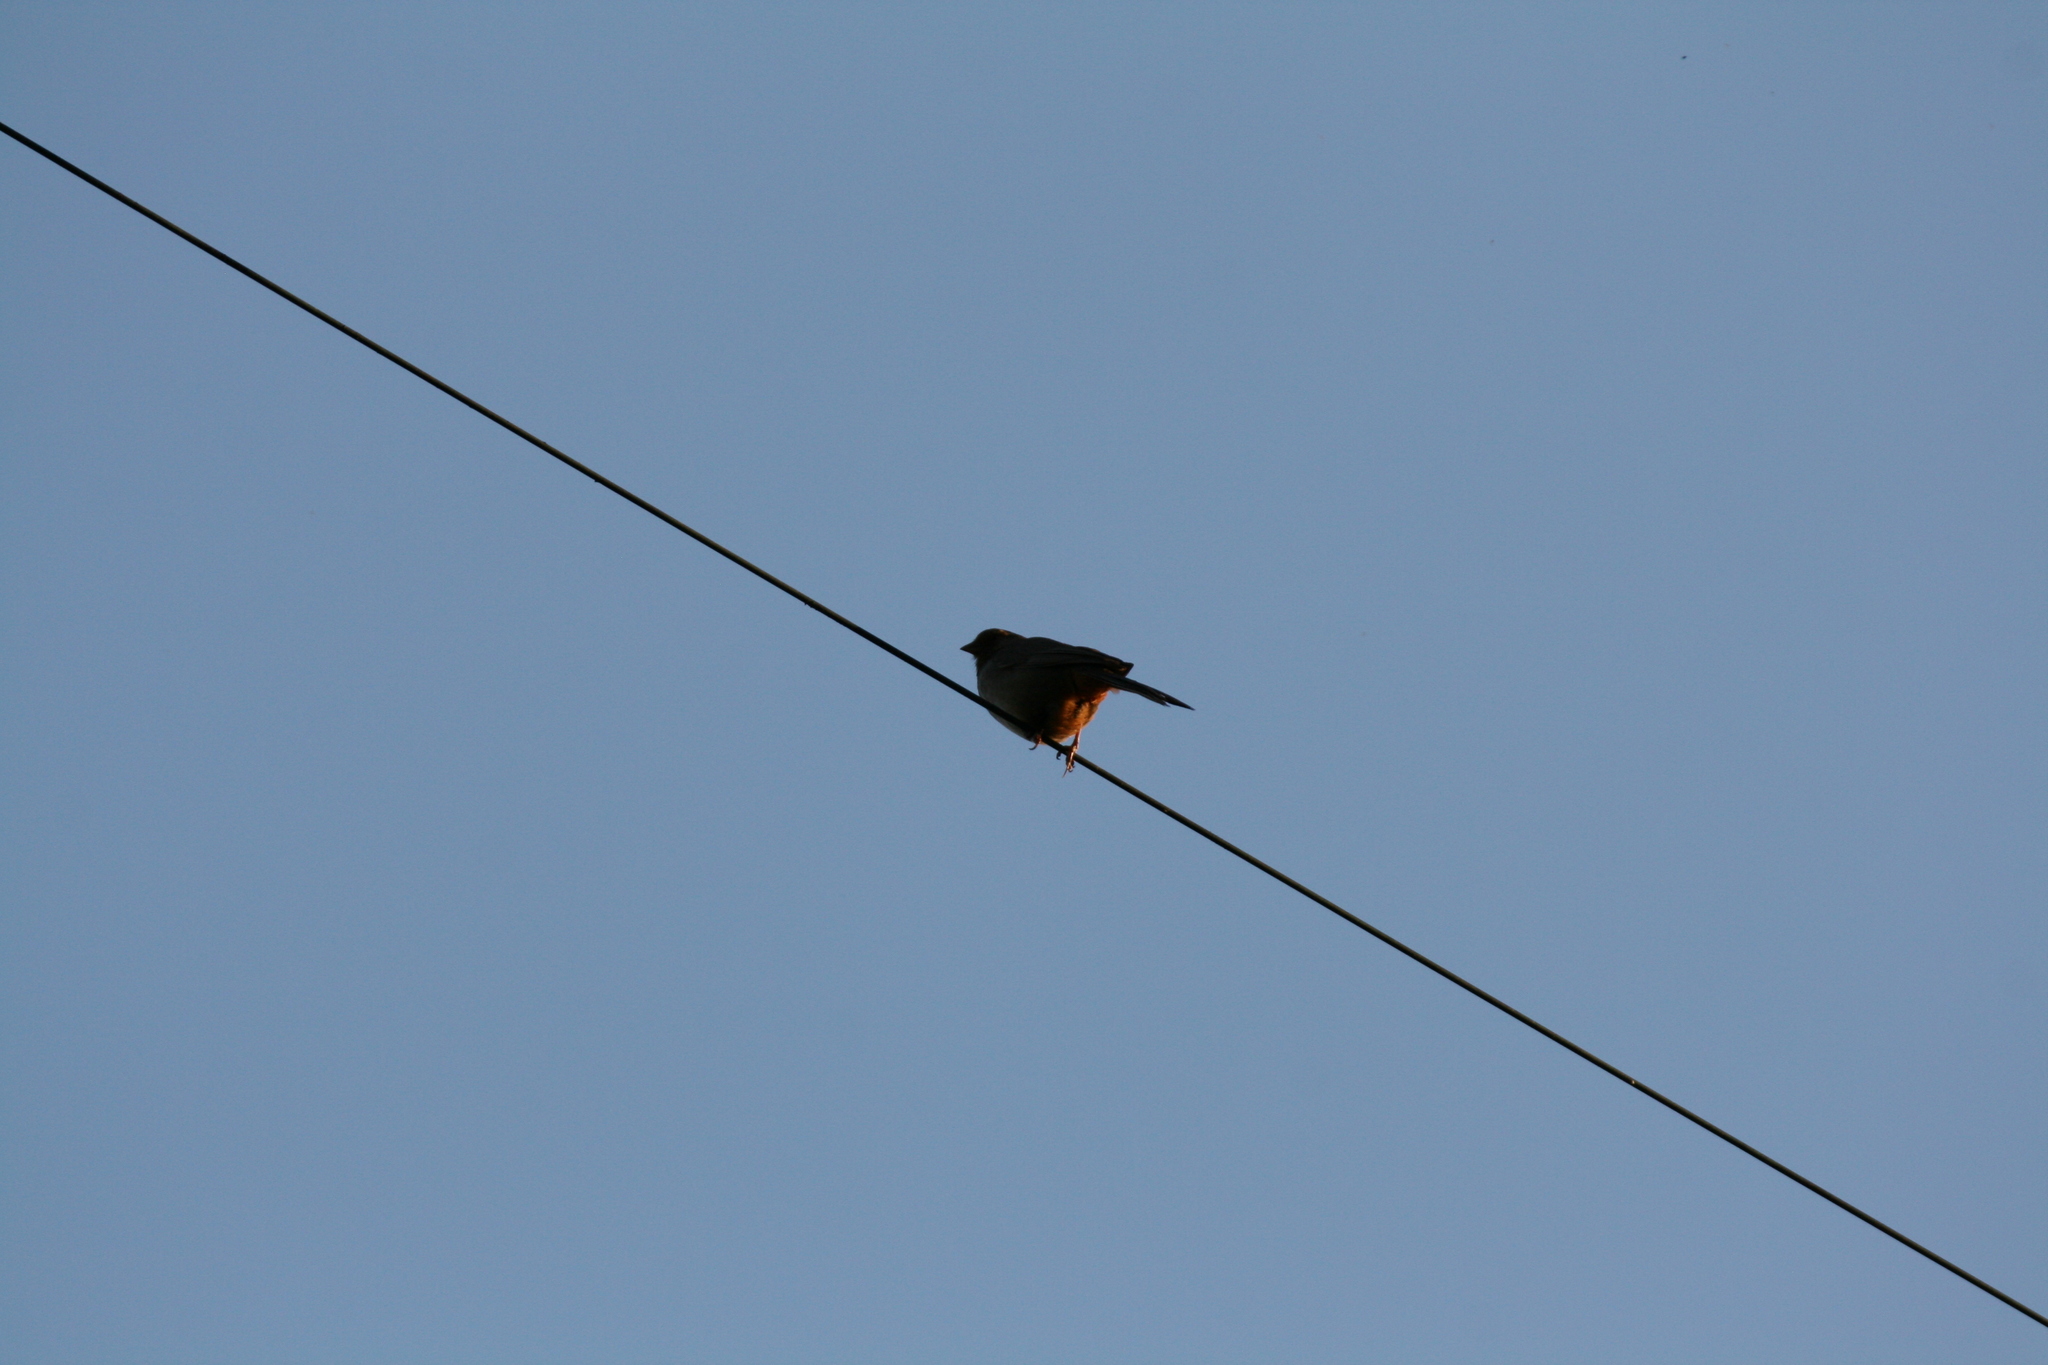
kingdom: Animalia
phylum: Chordata
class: Aves
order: Passeriformes
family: Passerellidae
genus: Melozone
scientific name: Melozone crissalis
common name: California towhee
